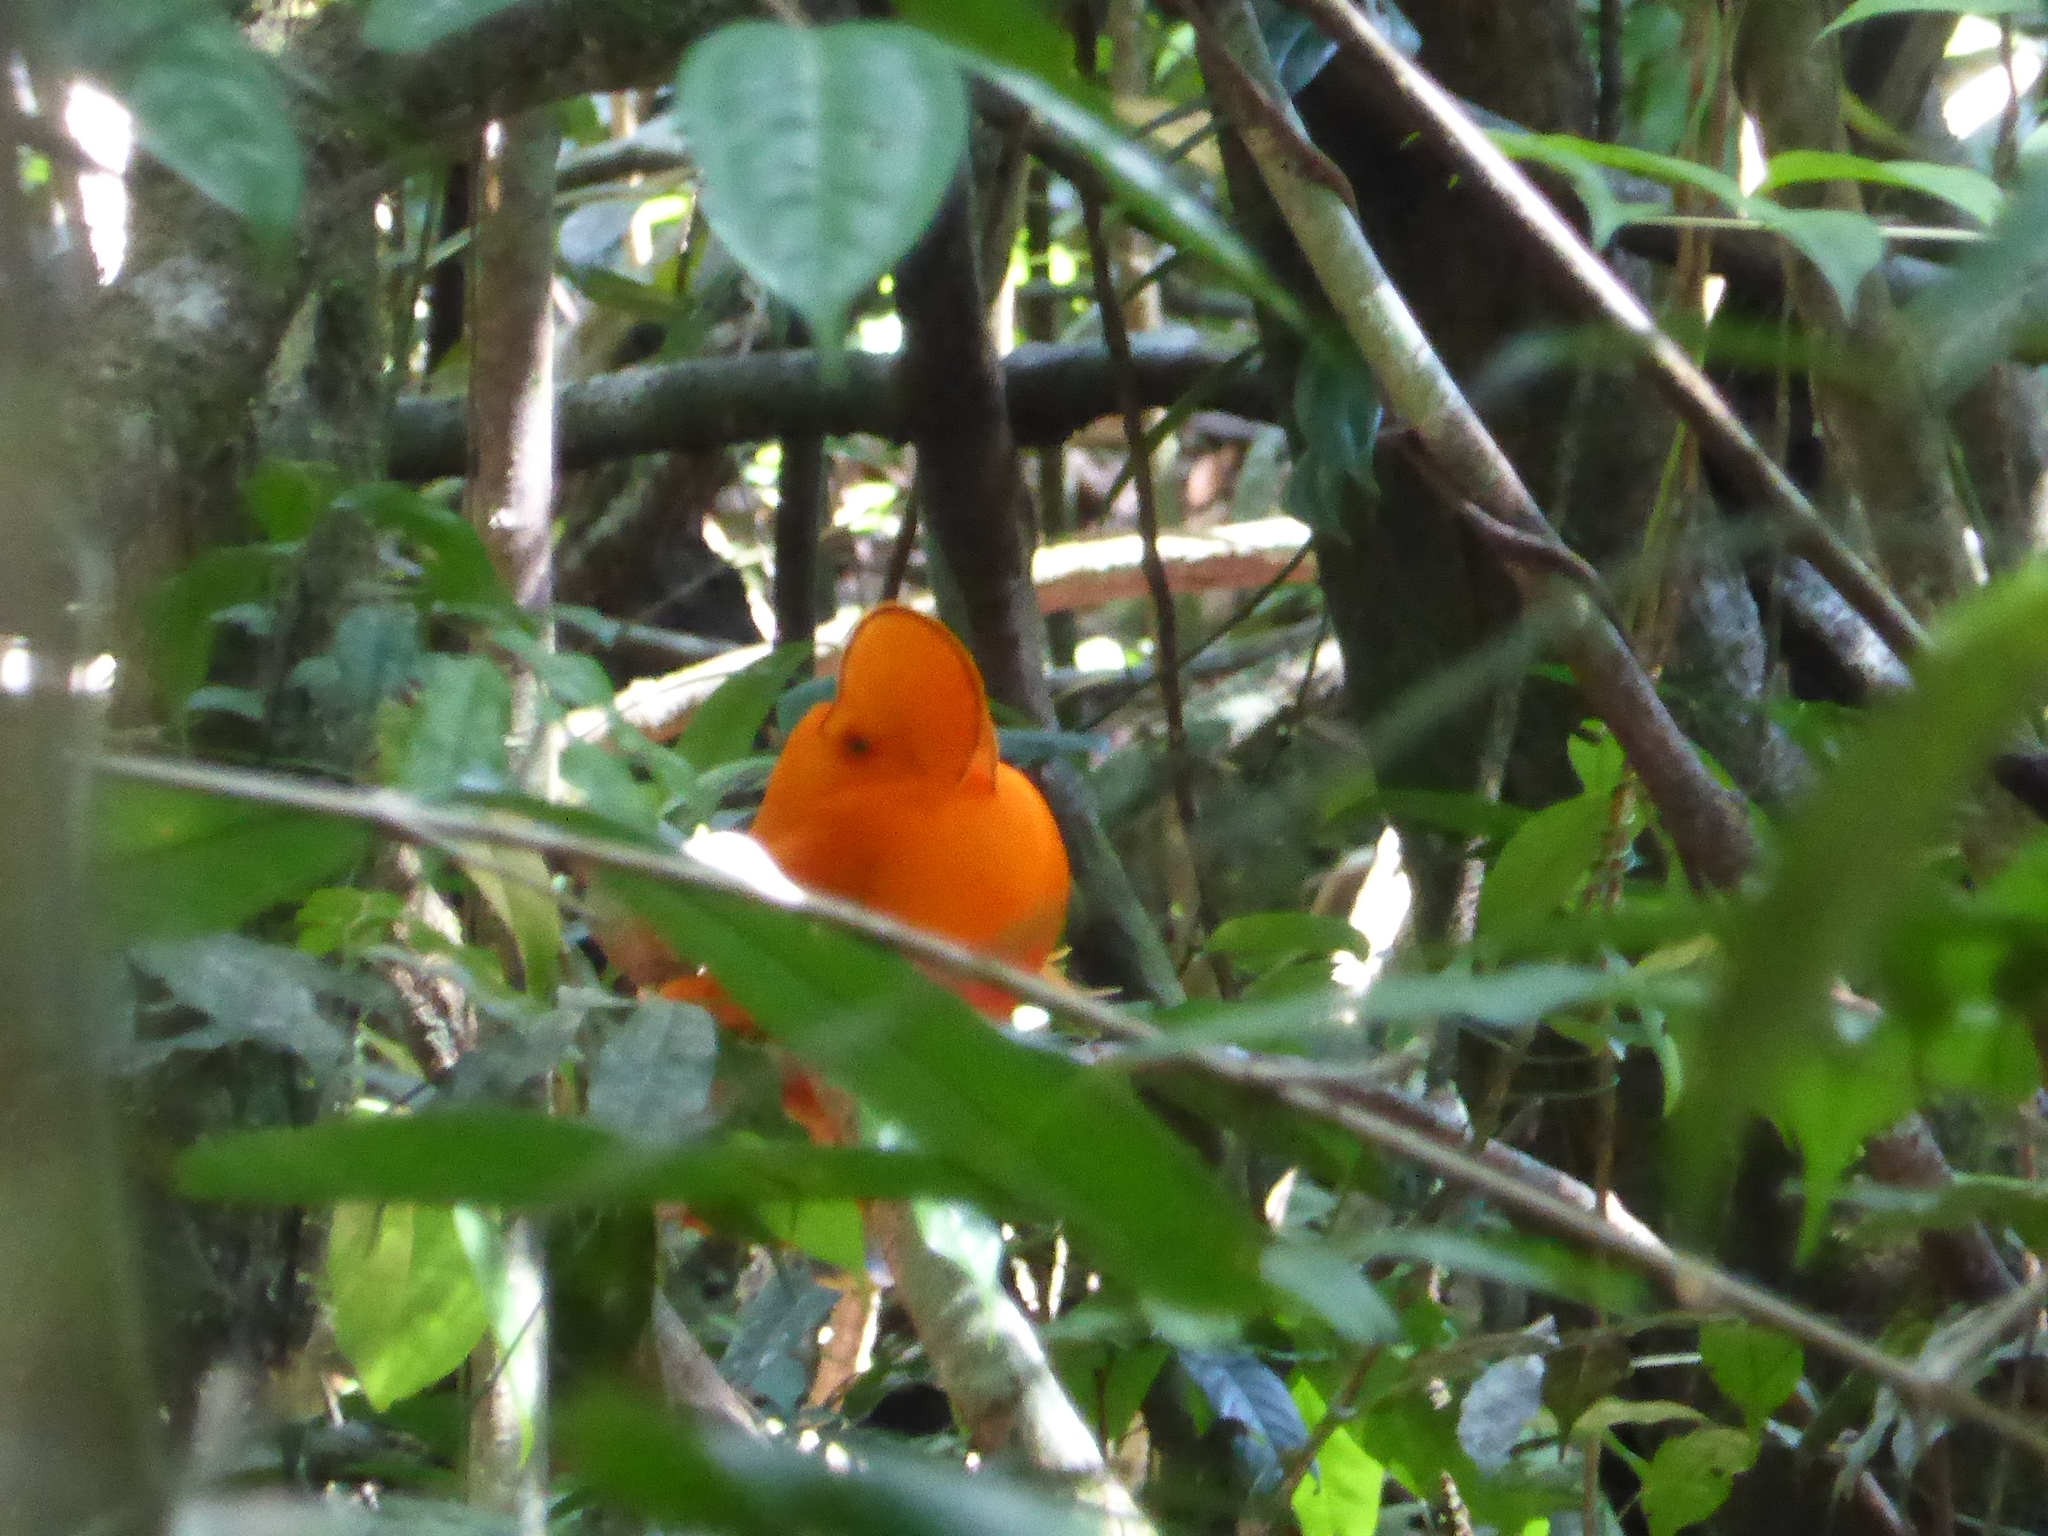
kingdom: Animalia
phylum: Chordata
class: Aves
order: Passeriformes
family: Cotingidae
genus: Rupicola
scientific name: Rupicola rupicola
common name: Guianan cock-of-the-rock
